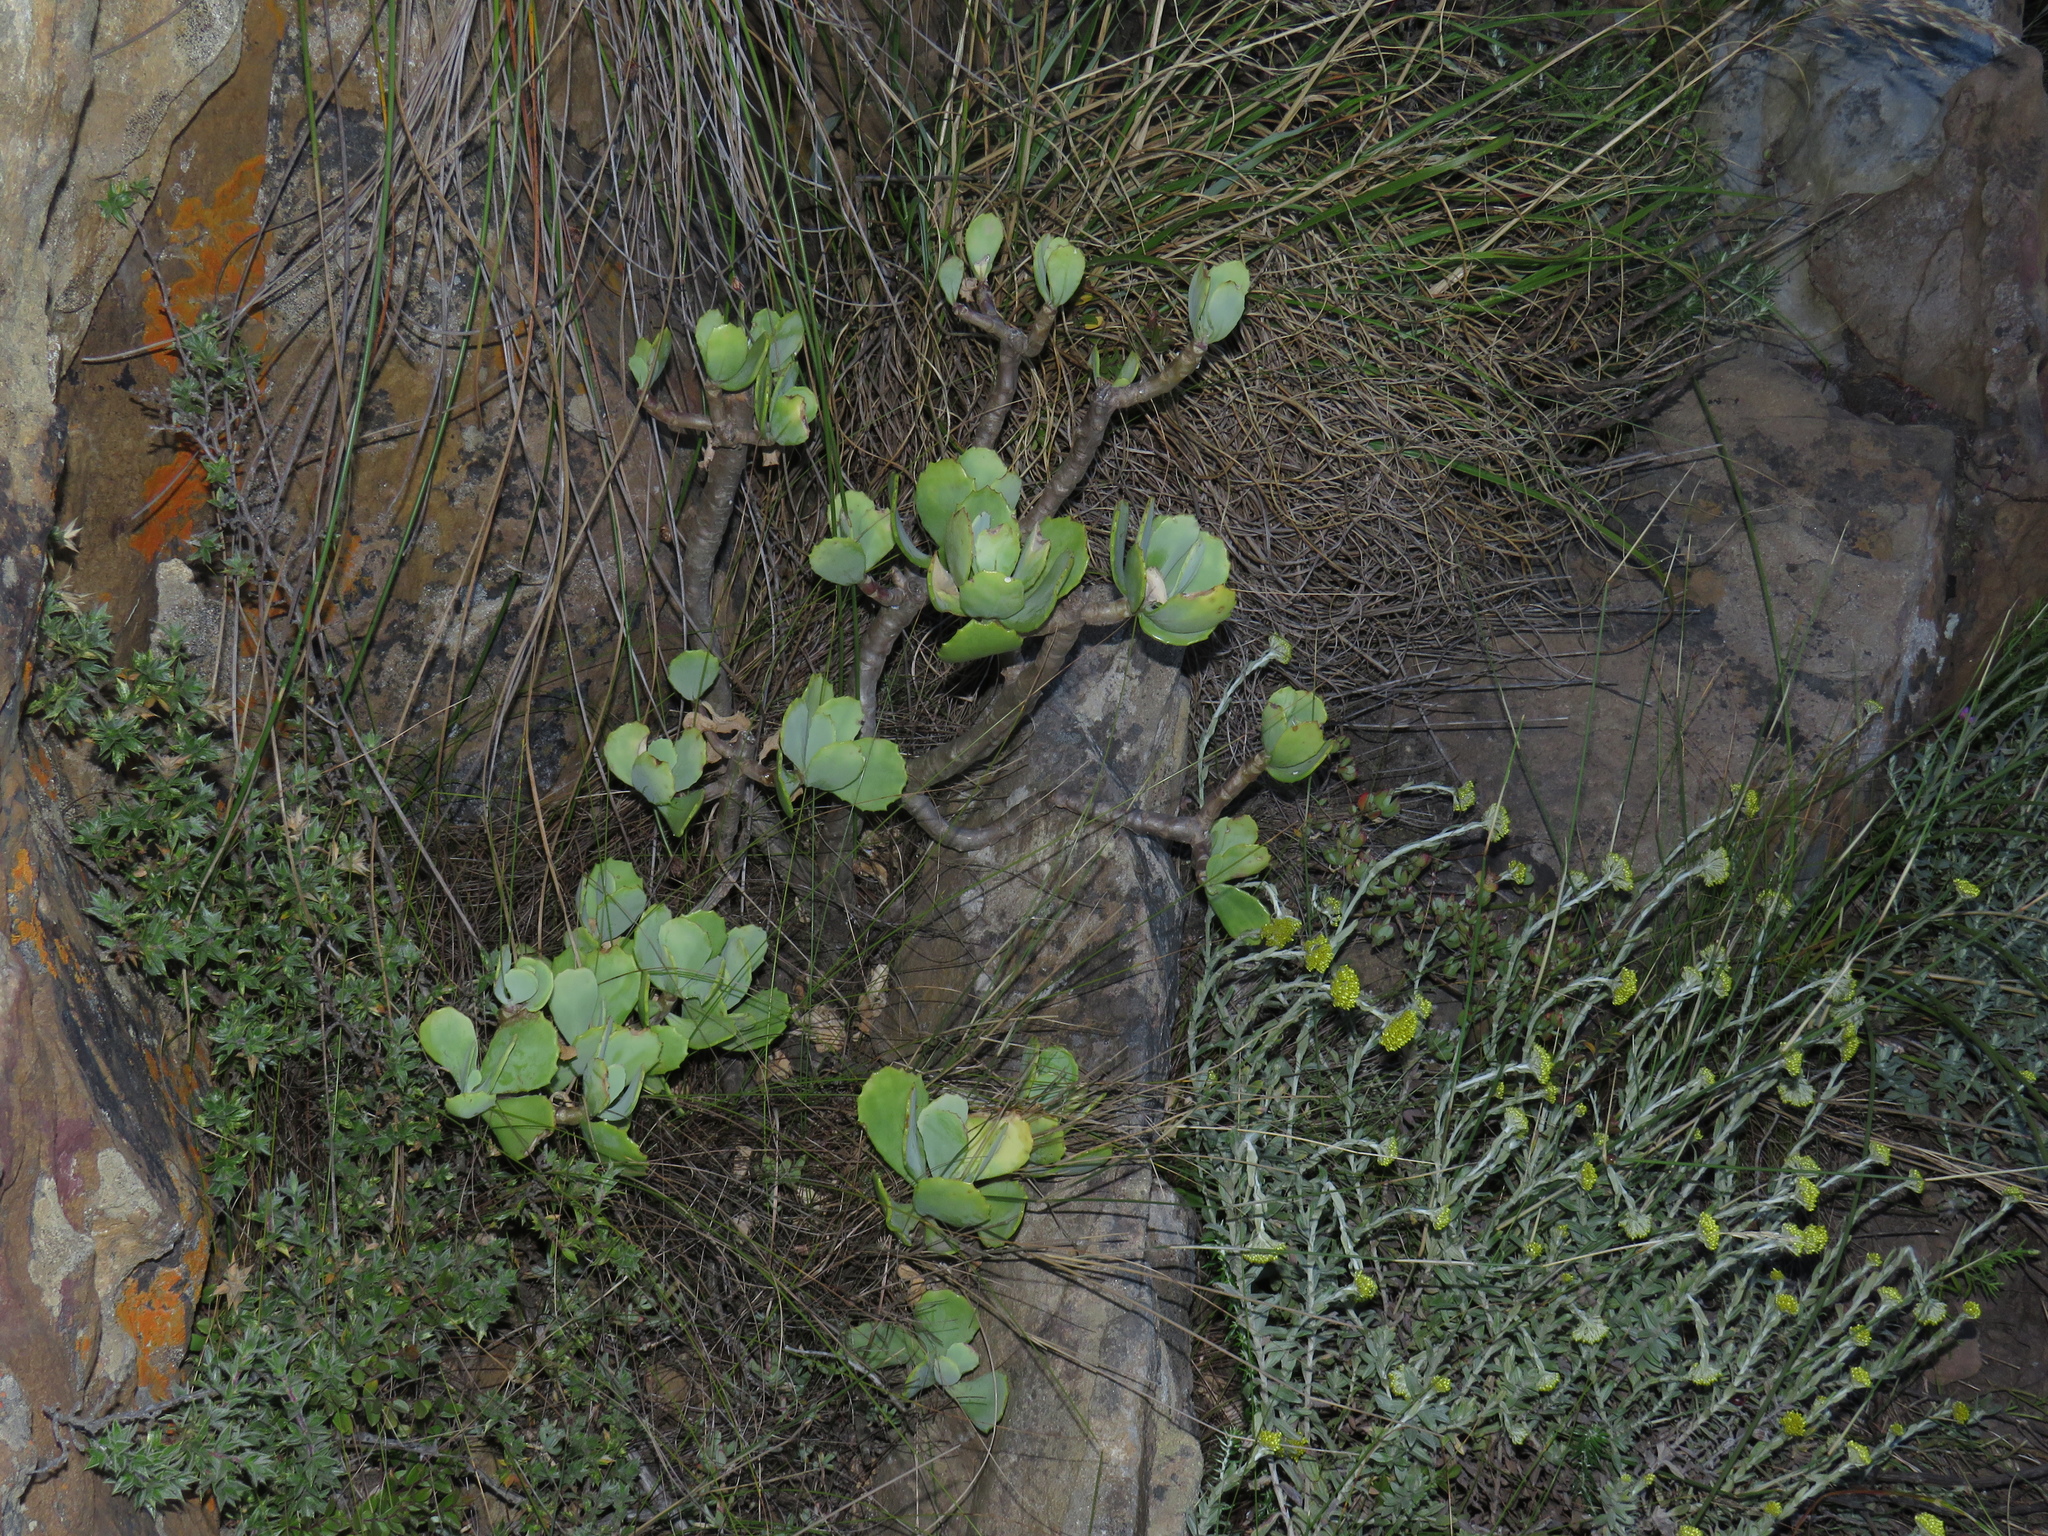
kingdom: Plantae
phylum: Tracheophyta
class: Magnoliopsida
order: Asterales
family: Asteraceae
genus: Othonna
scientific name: Othonna dentata
